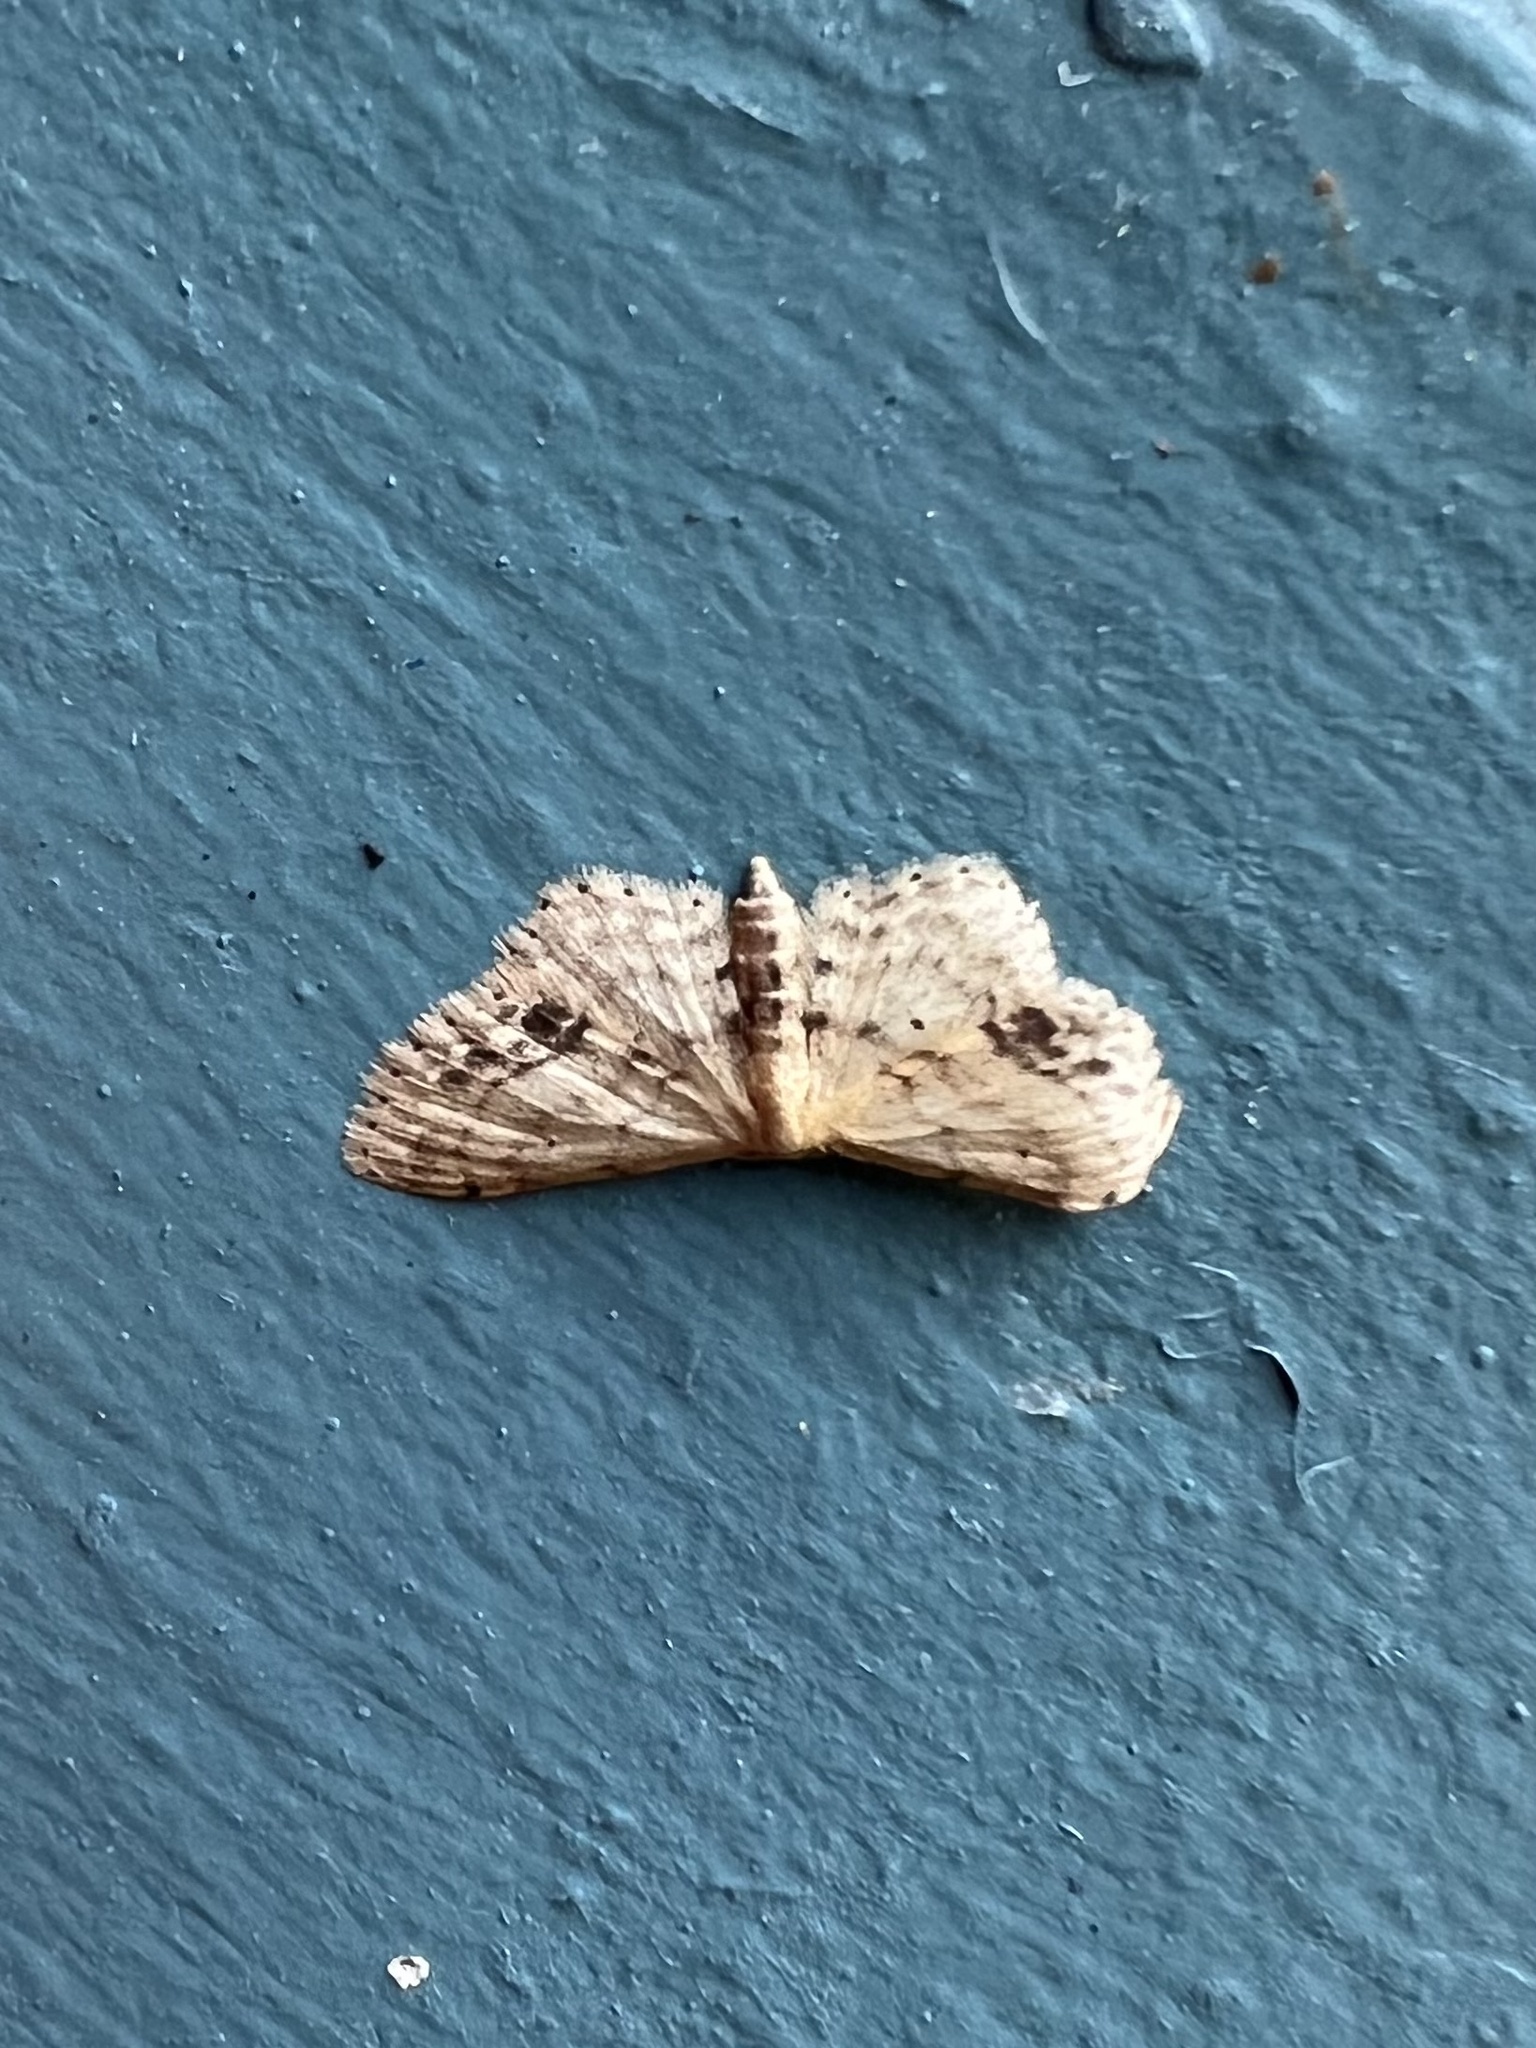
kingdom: Animalia
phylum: Arthropoda
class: Insecta
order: Lepidoptera
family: Geometridae
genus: Idaea
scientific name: Idaea dimidiata
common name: Single-dotted wave
